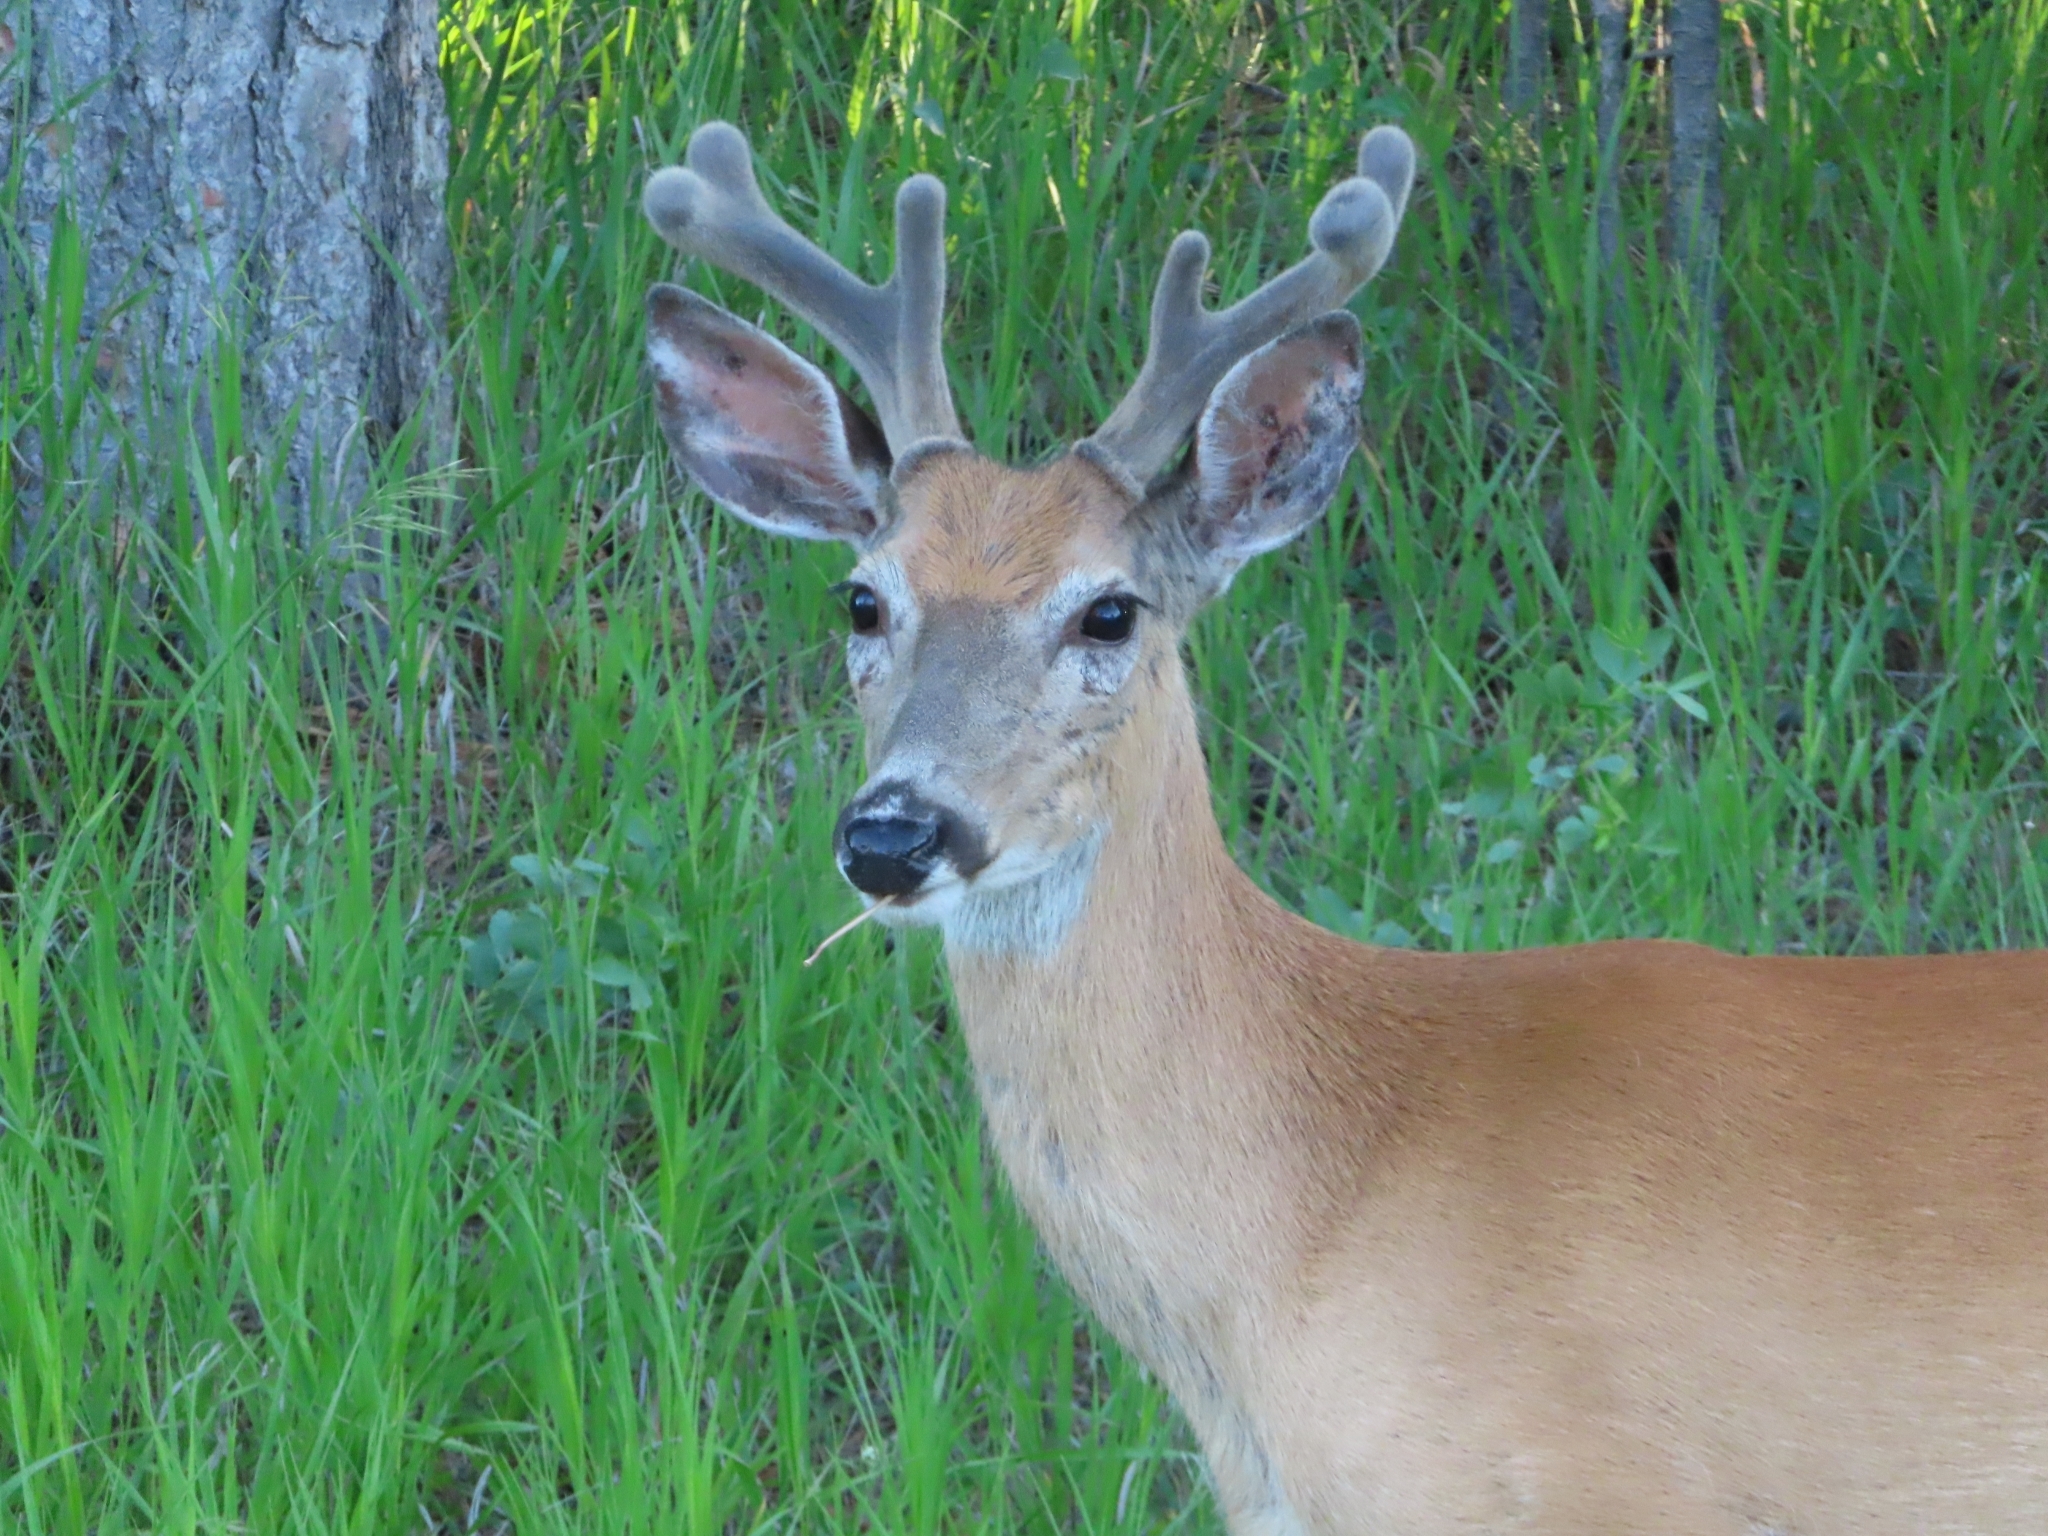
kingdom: Animalia
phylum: Chordata
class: Mammalia
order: Artiodactyla
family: Cervidae
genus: Odocoileus
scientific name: Odocoileus virginianus
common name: White-tailed deer
